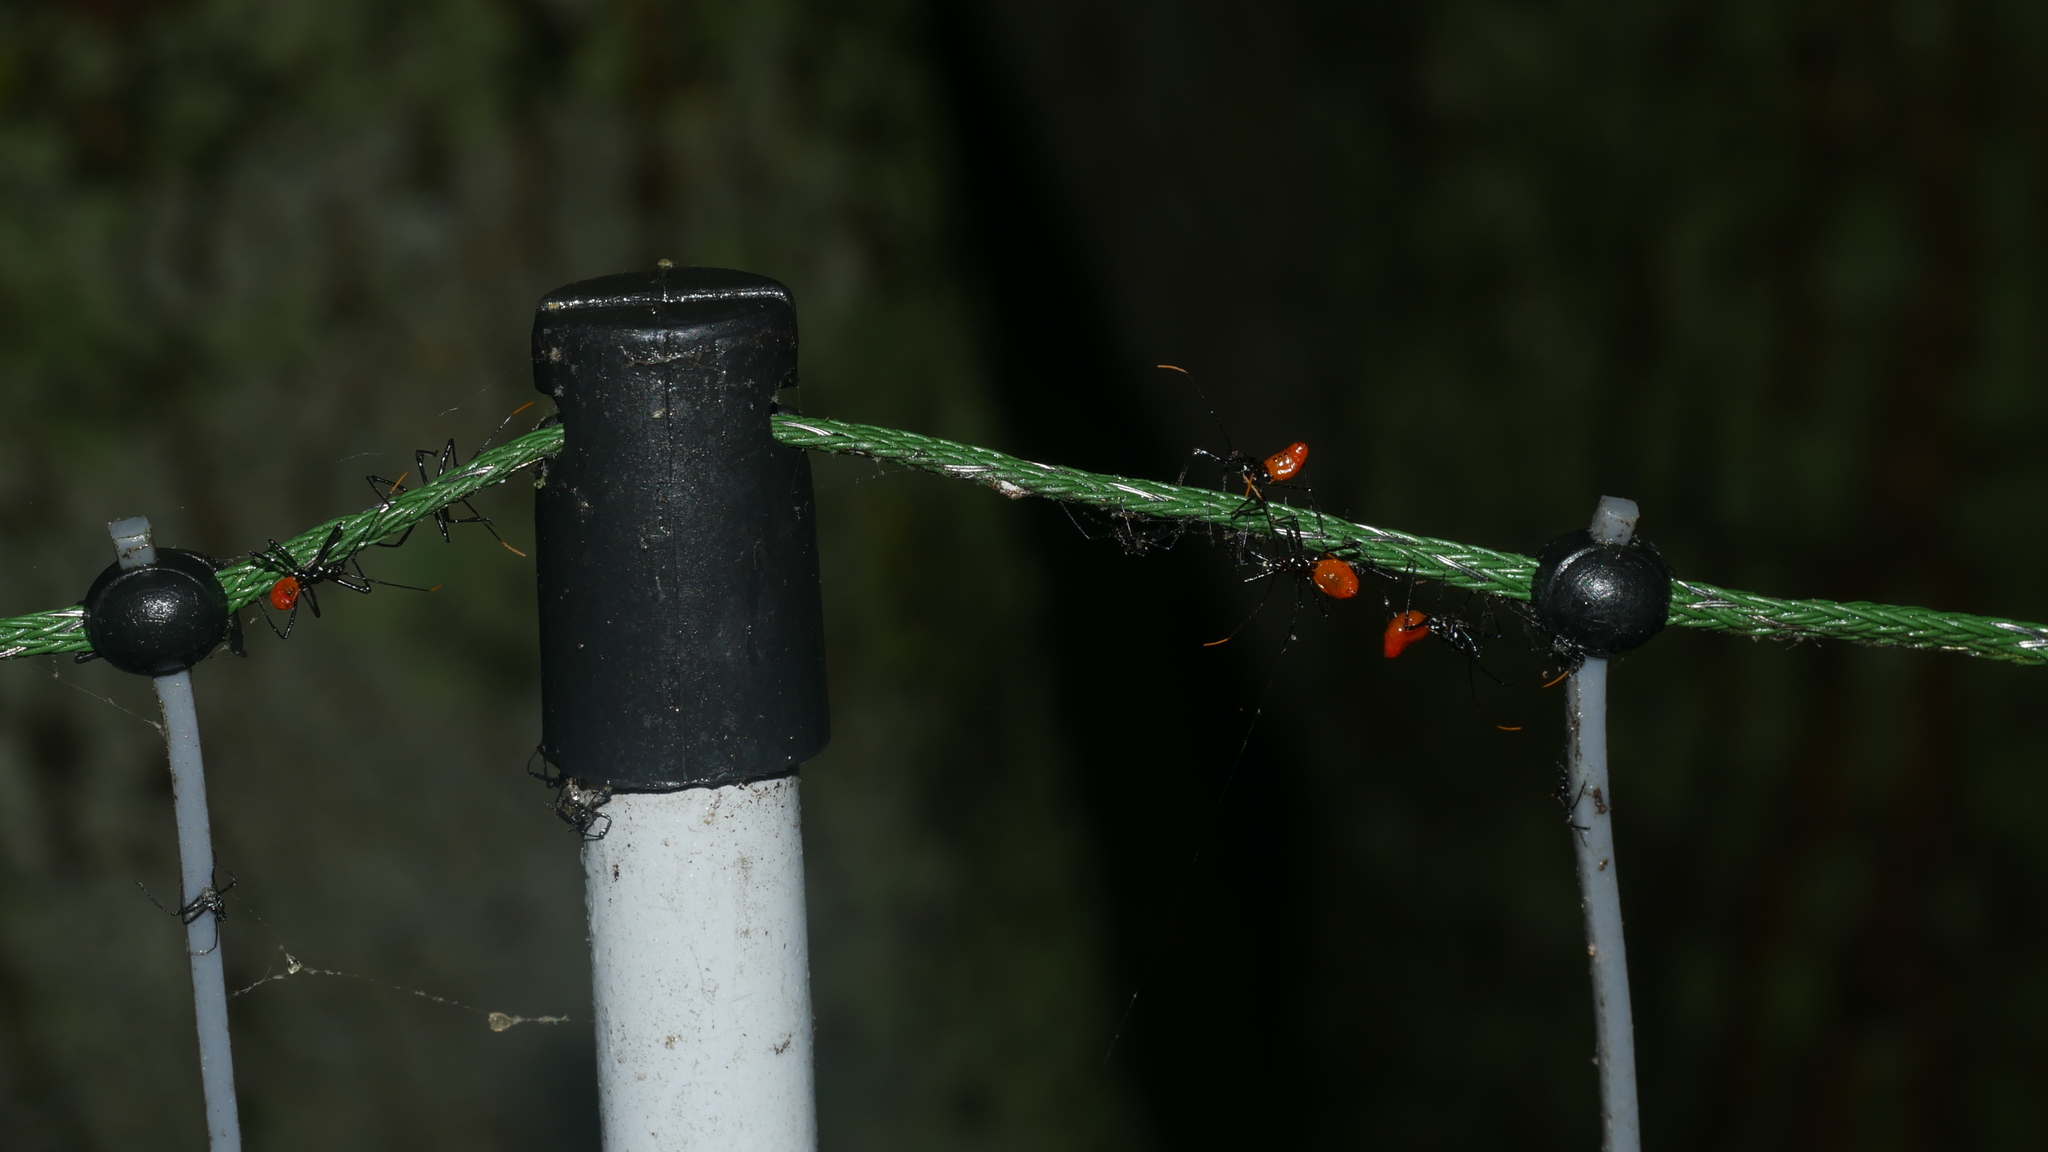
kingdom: Animalia
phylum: Arthropoda
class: Insecta
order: Hemiptera
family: Reduviidae
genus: Arilus
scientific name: Arilus cristatus
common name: North american wheel bug
